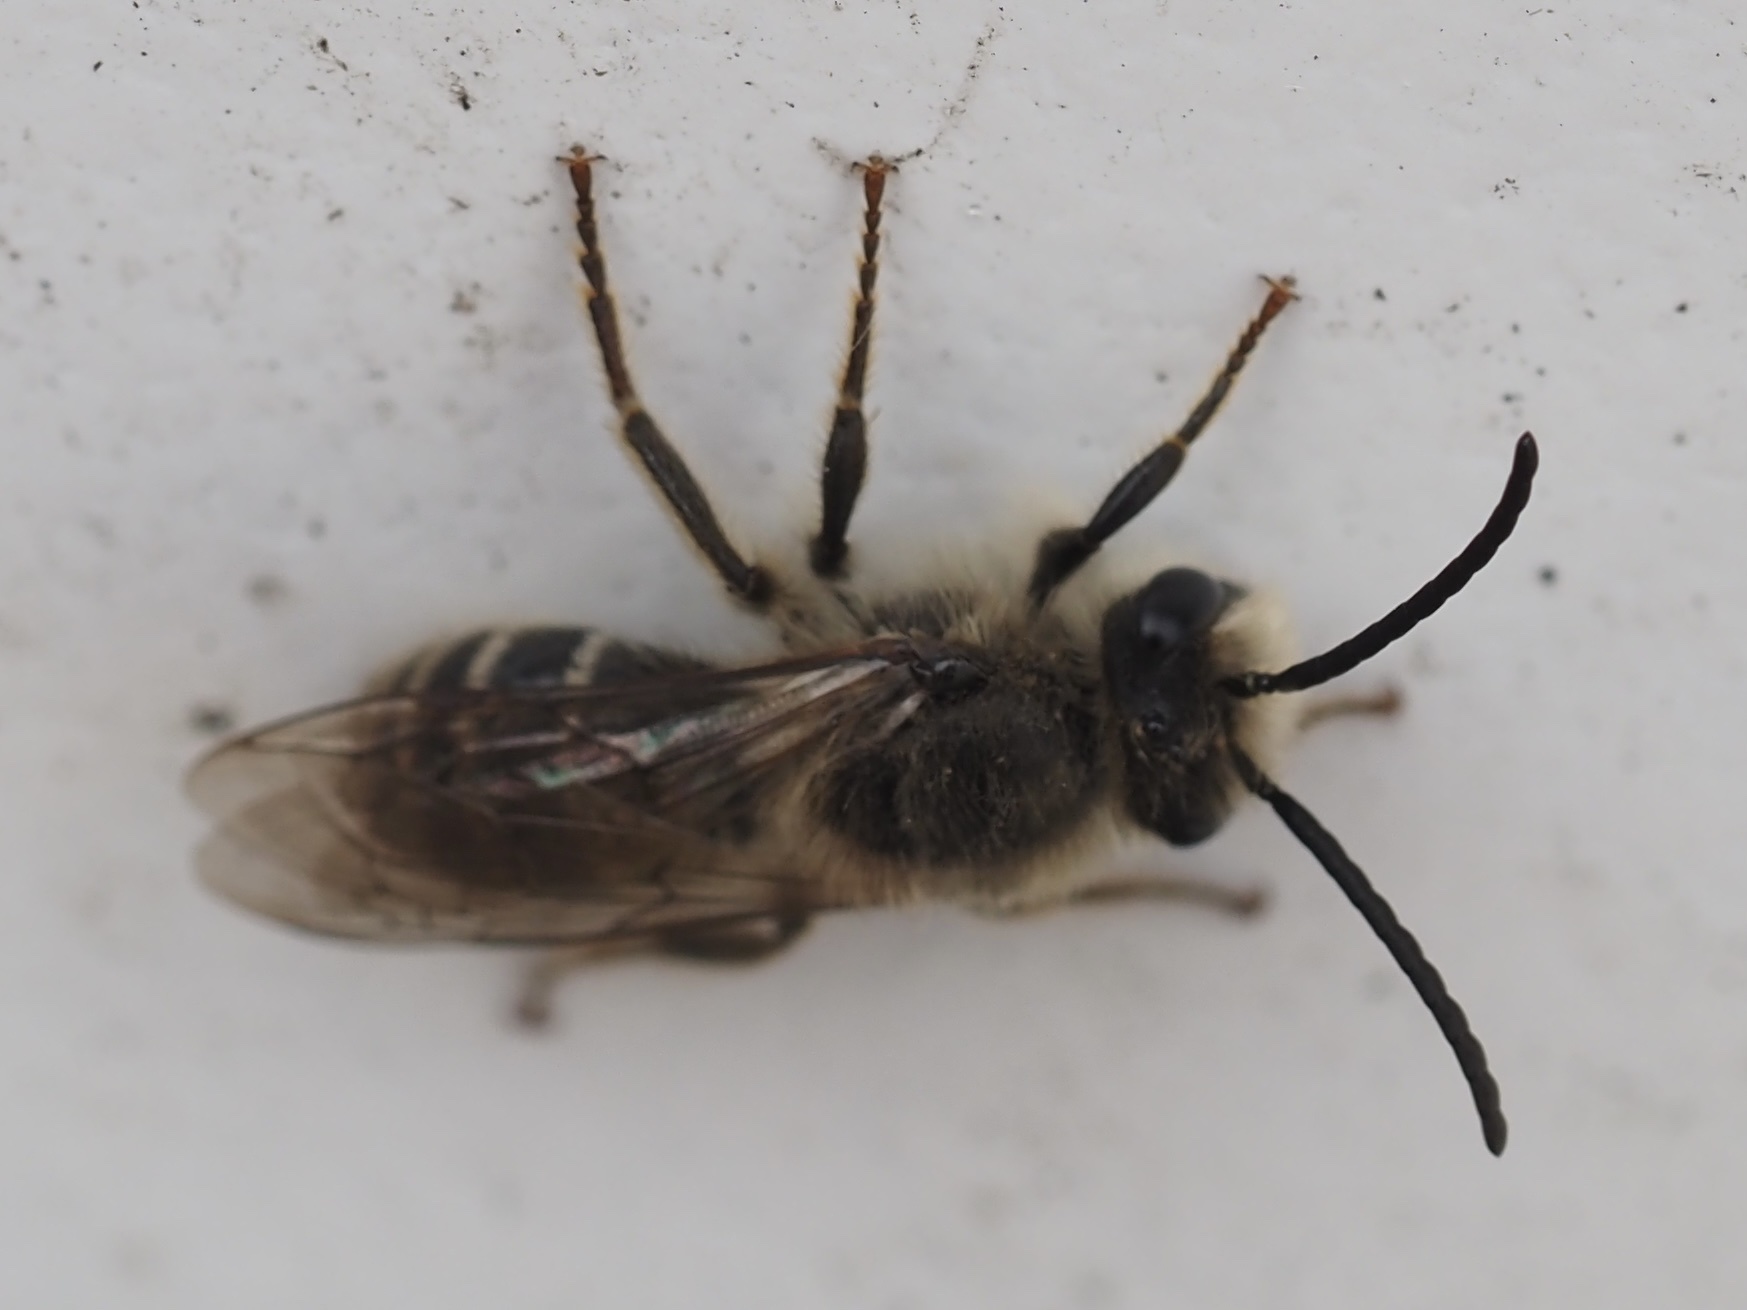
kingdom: Animalia
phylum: Arthropoda
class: Insecta
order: Hymenoptera
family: Colletidae
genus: Colletes
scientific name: Colletes inaequalis
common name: Unequal cellophane bee
